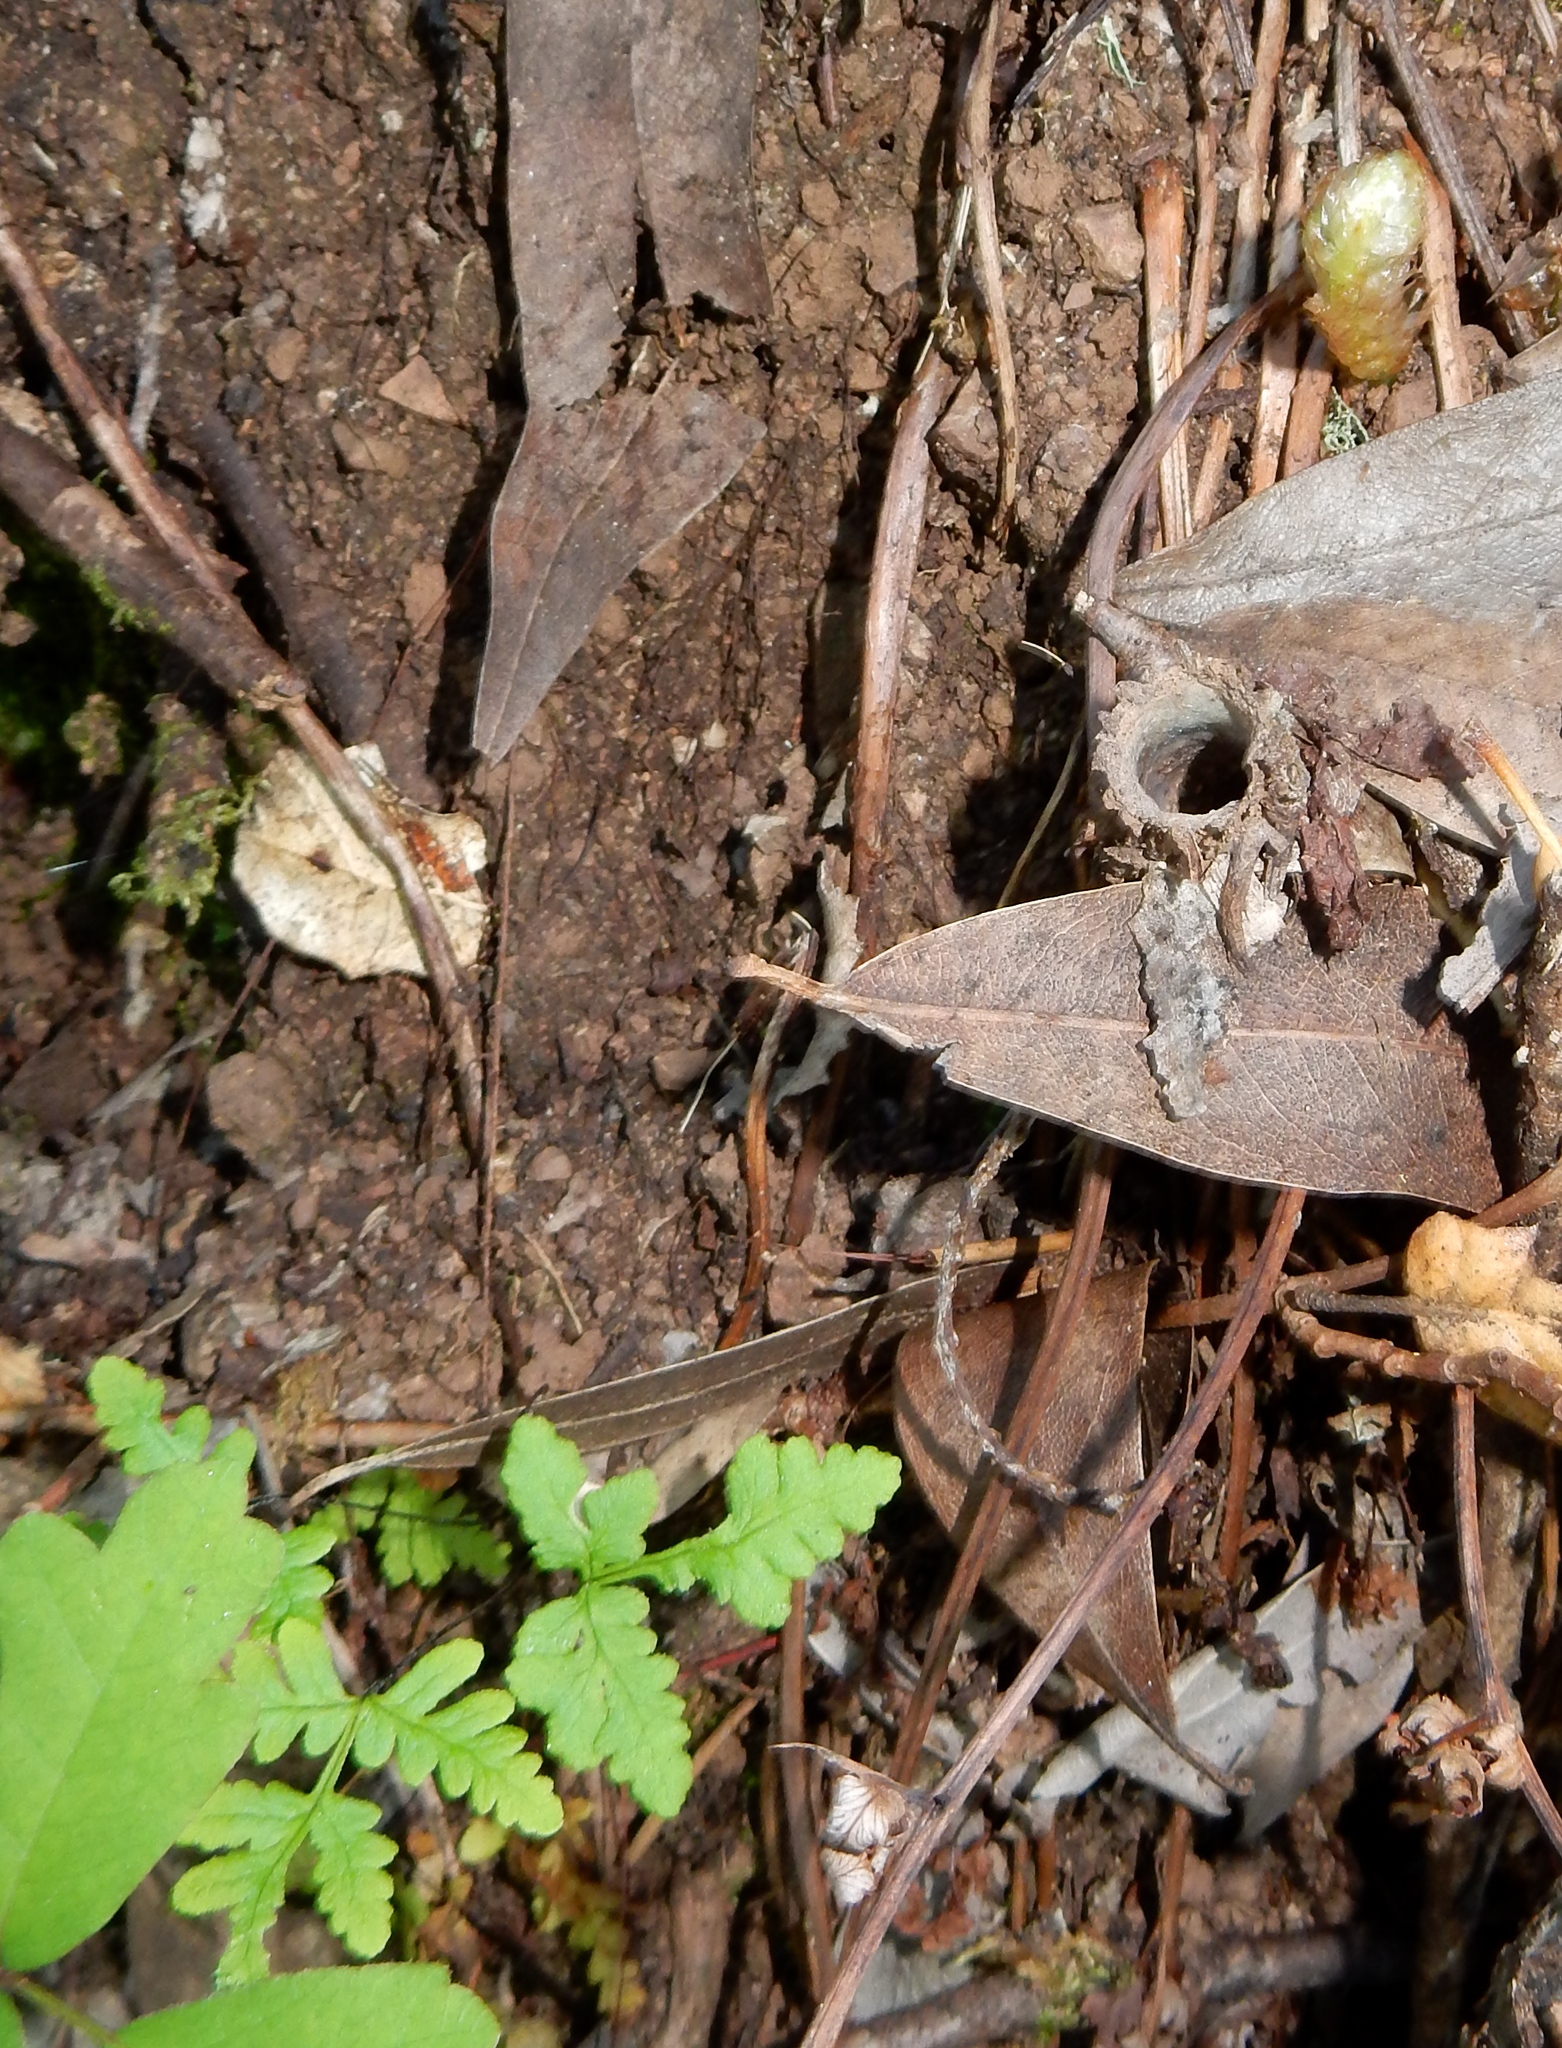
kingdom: Animalia
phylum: Arthropoda
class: Arachnida
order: Araneae
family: Antrodiaetidae
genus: Atypoides
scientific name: Atypoides riversi
